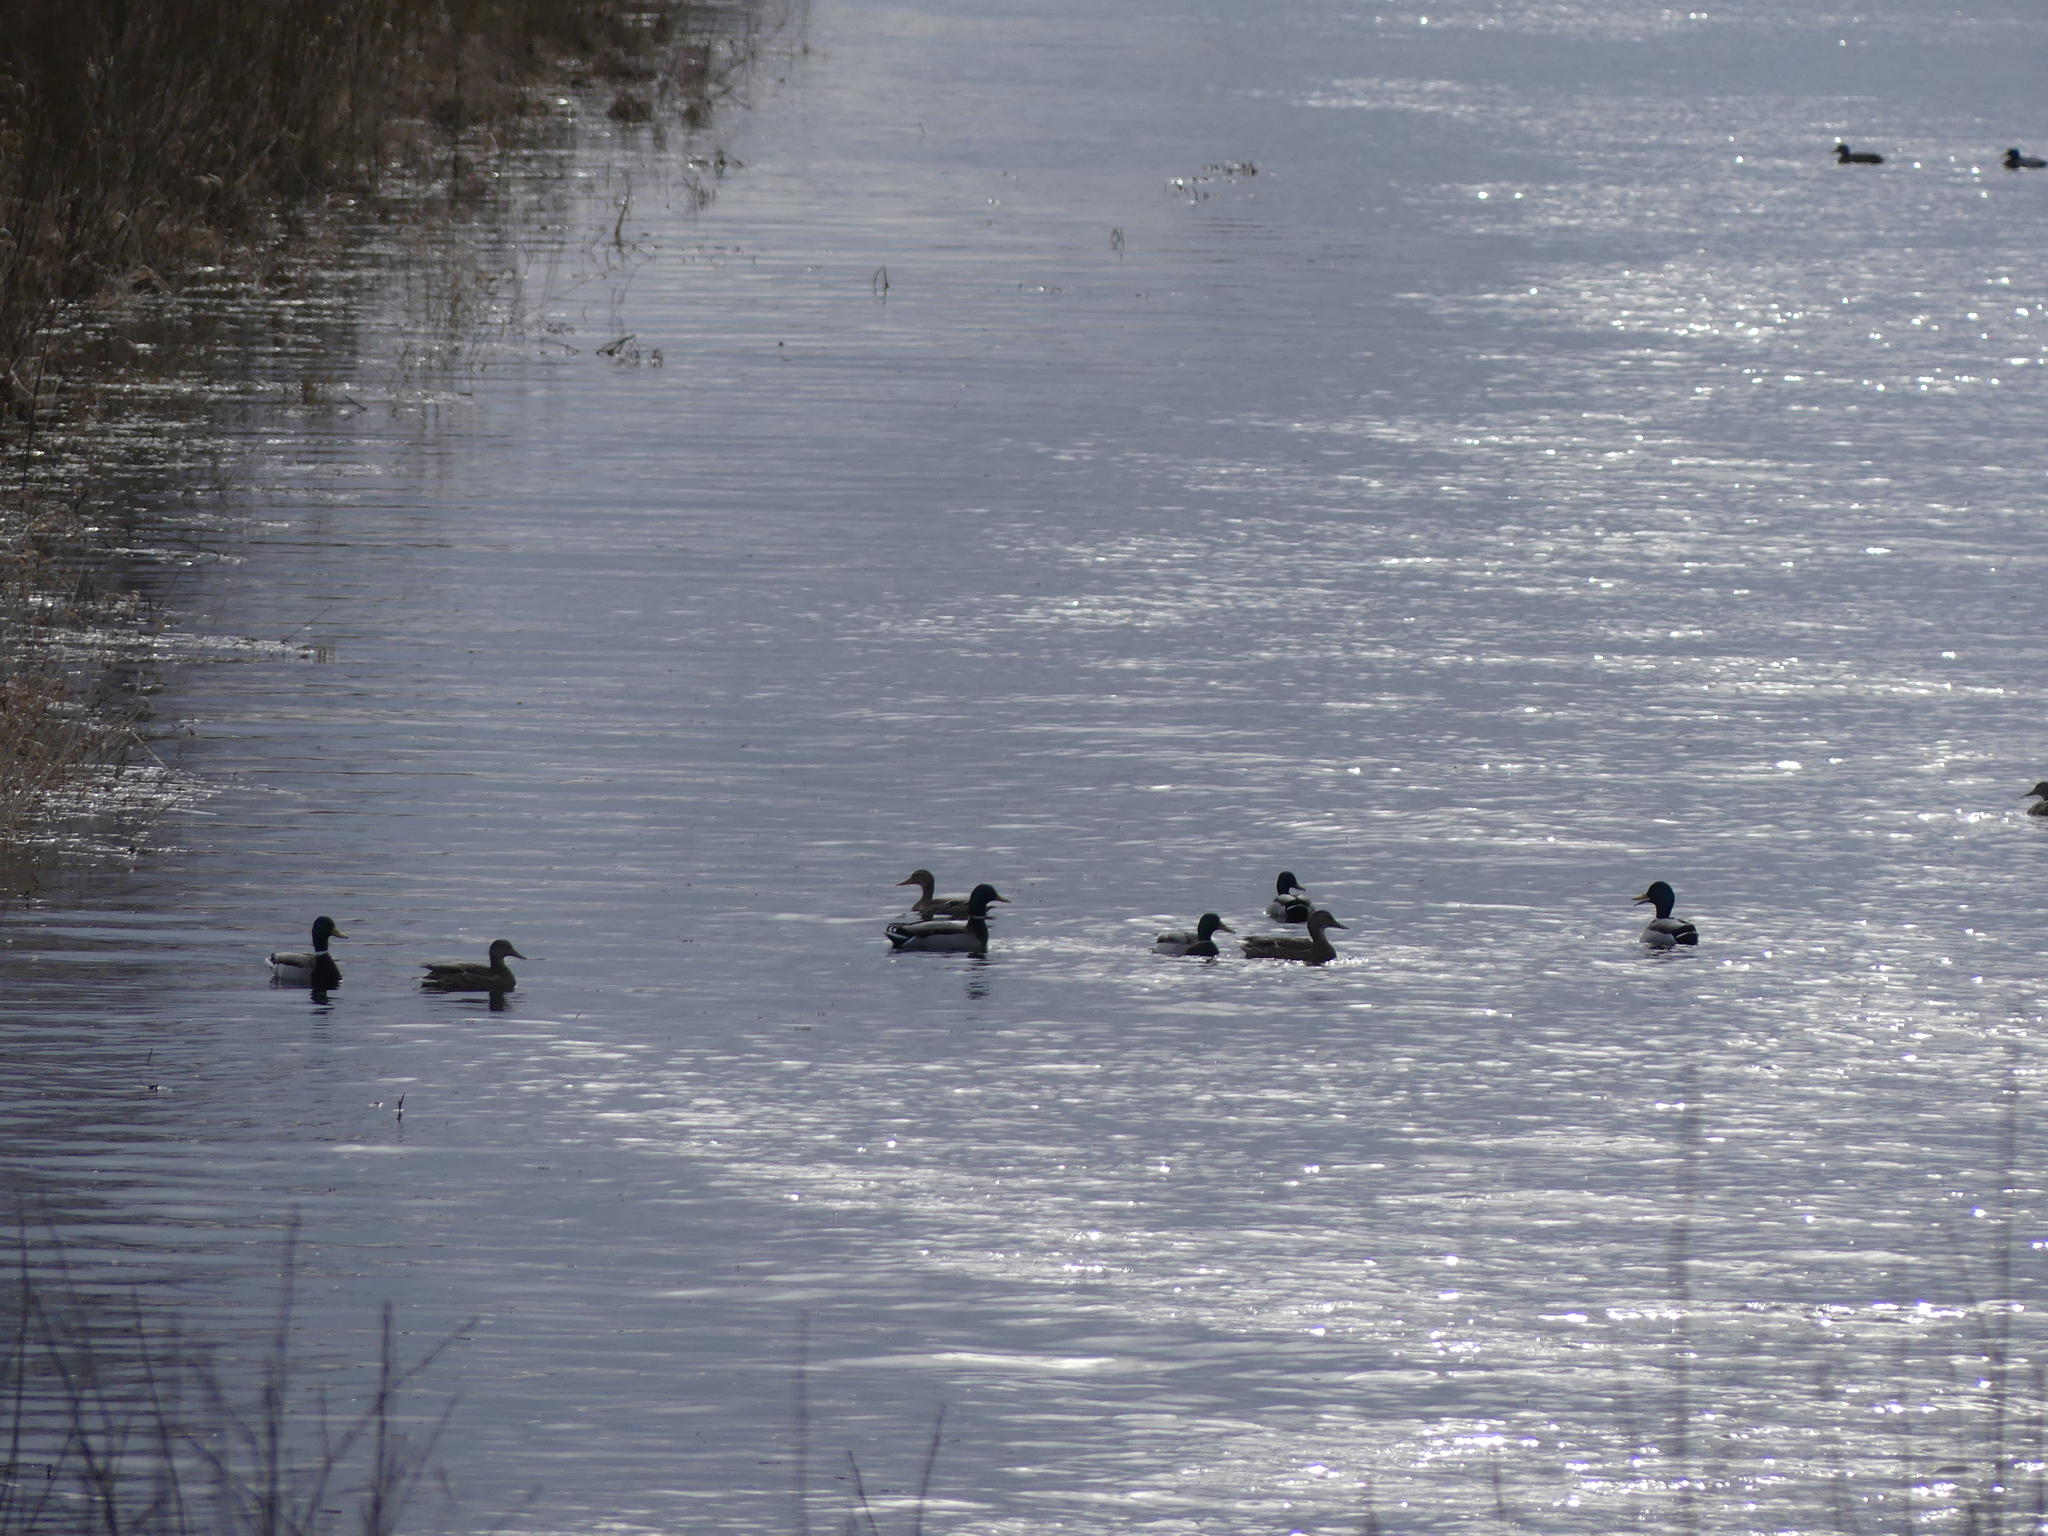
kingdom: Animalia
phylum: Chordata
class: Aves
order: Anseriformes
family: Anatidae
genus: Anas
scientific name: Anas platyrhynchos
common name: Mallard
